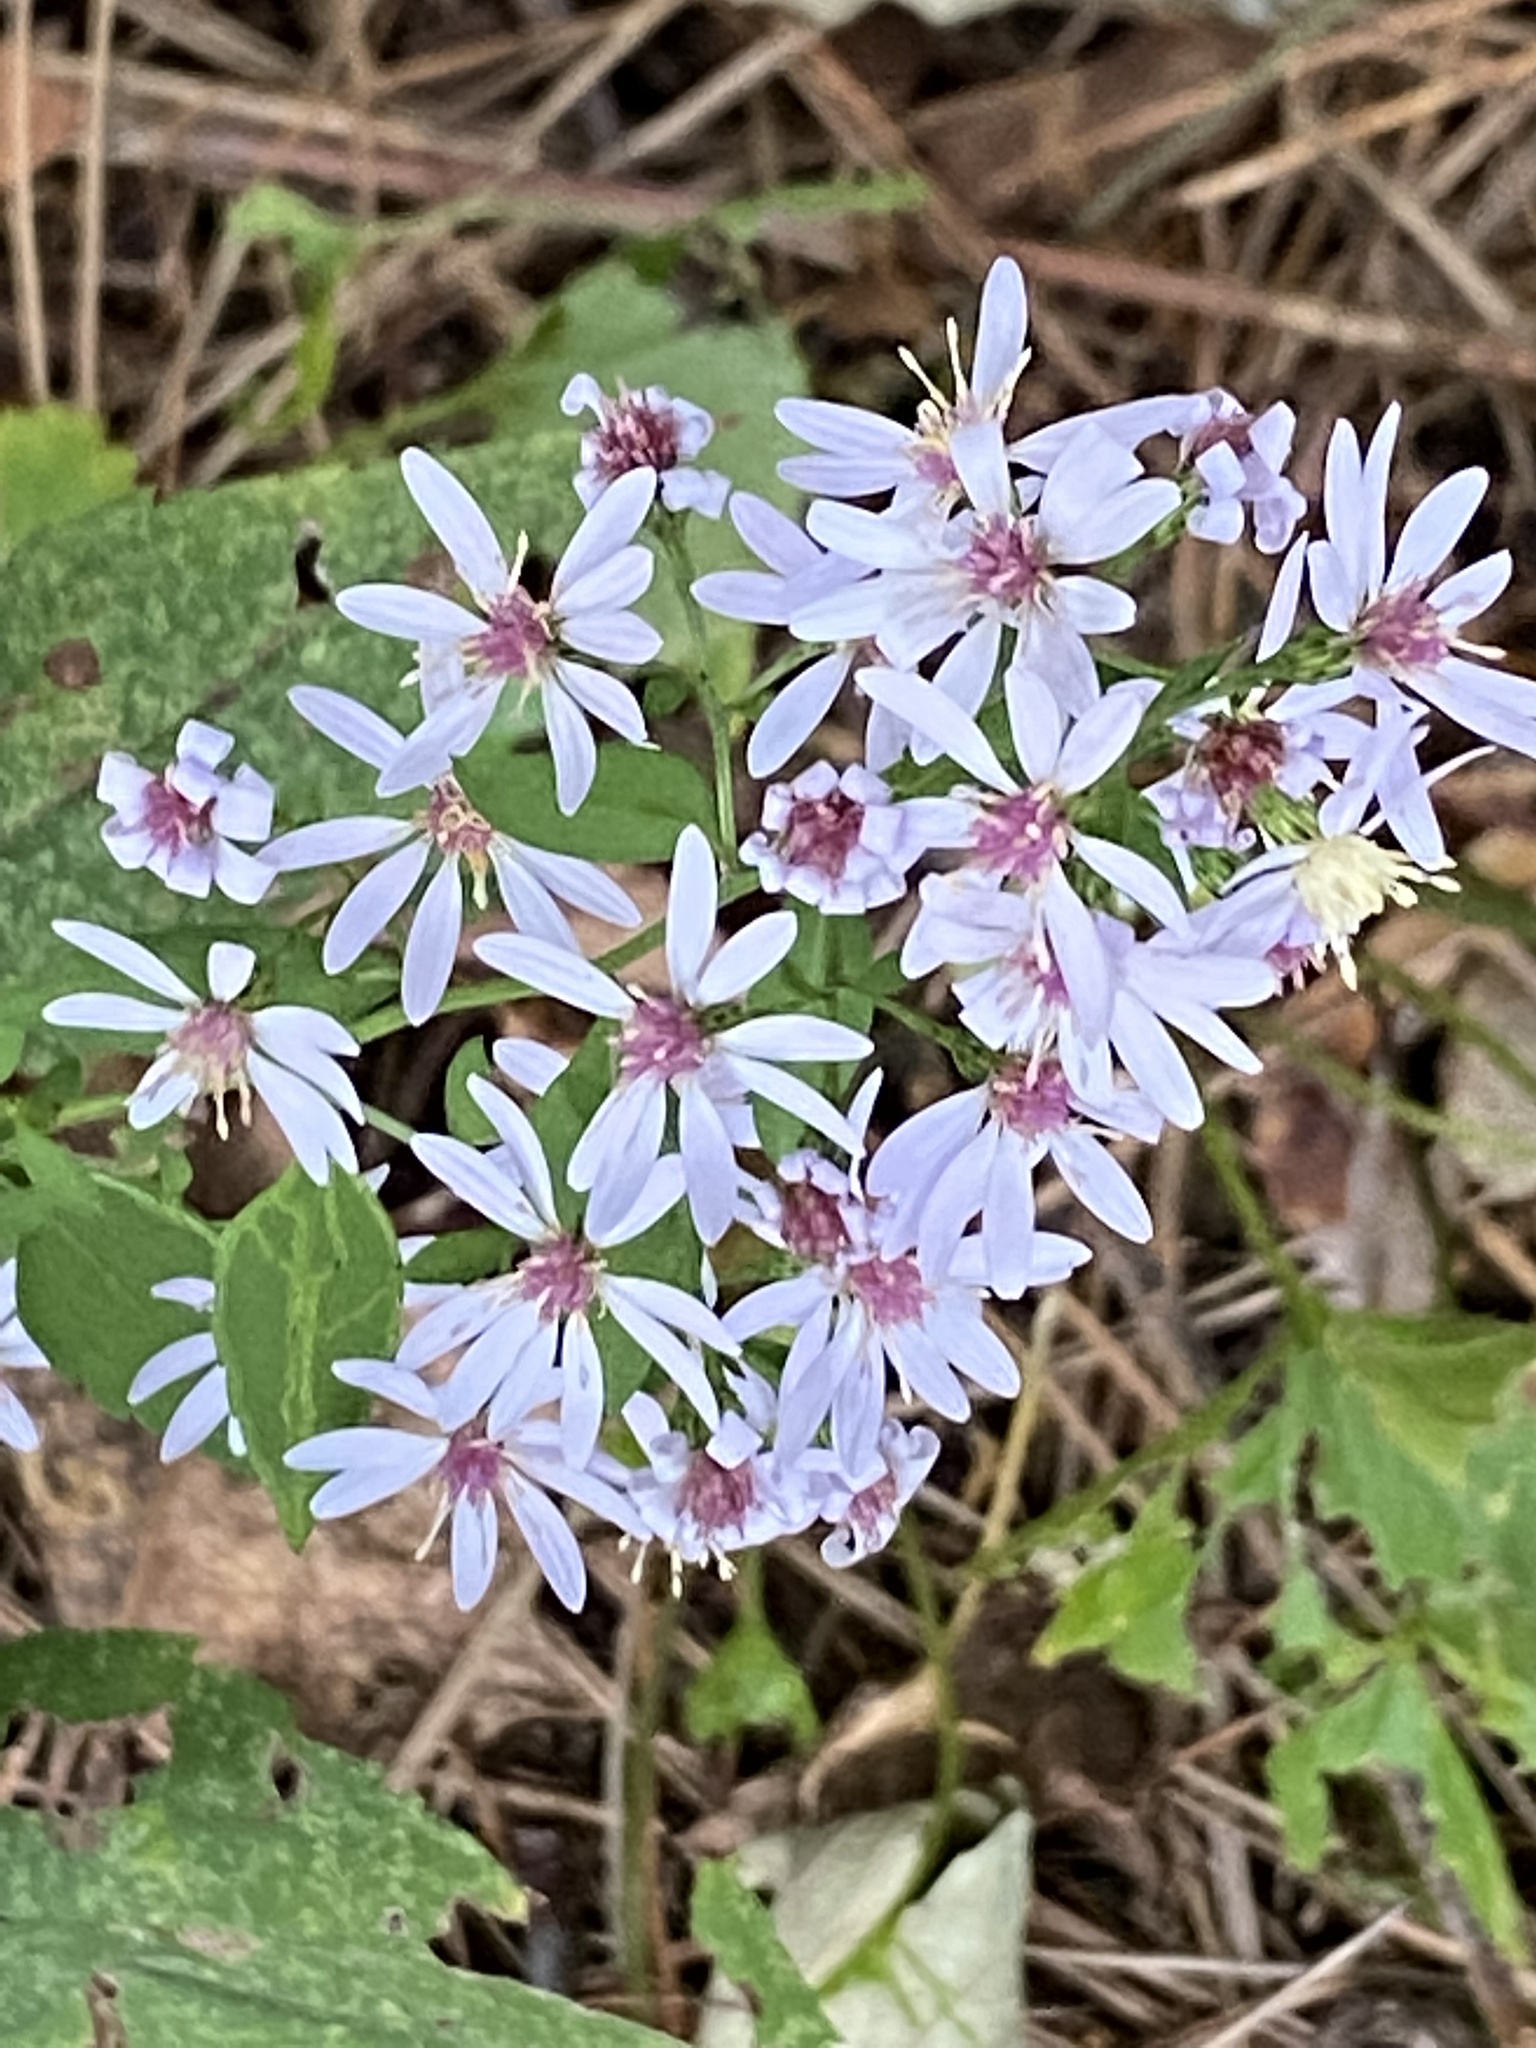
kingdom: Plantae
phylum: Tracheophyta
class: Magnoliopsida
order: Asterales
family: Asteraceae
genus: Symphyotrichum
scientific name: Symphyotrichum cordifolium
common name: Beeweed
